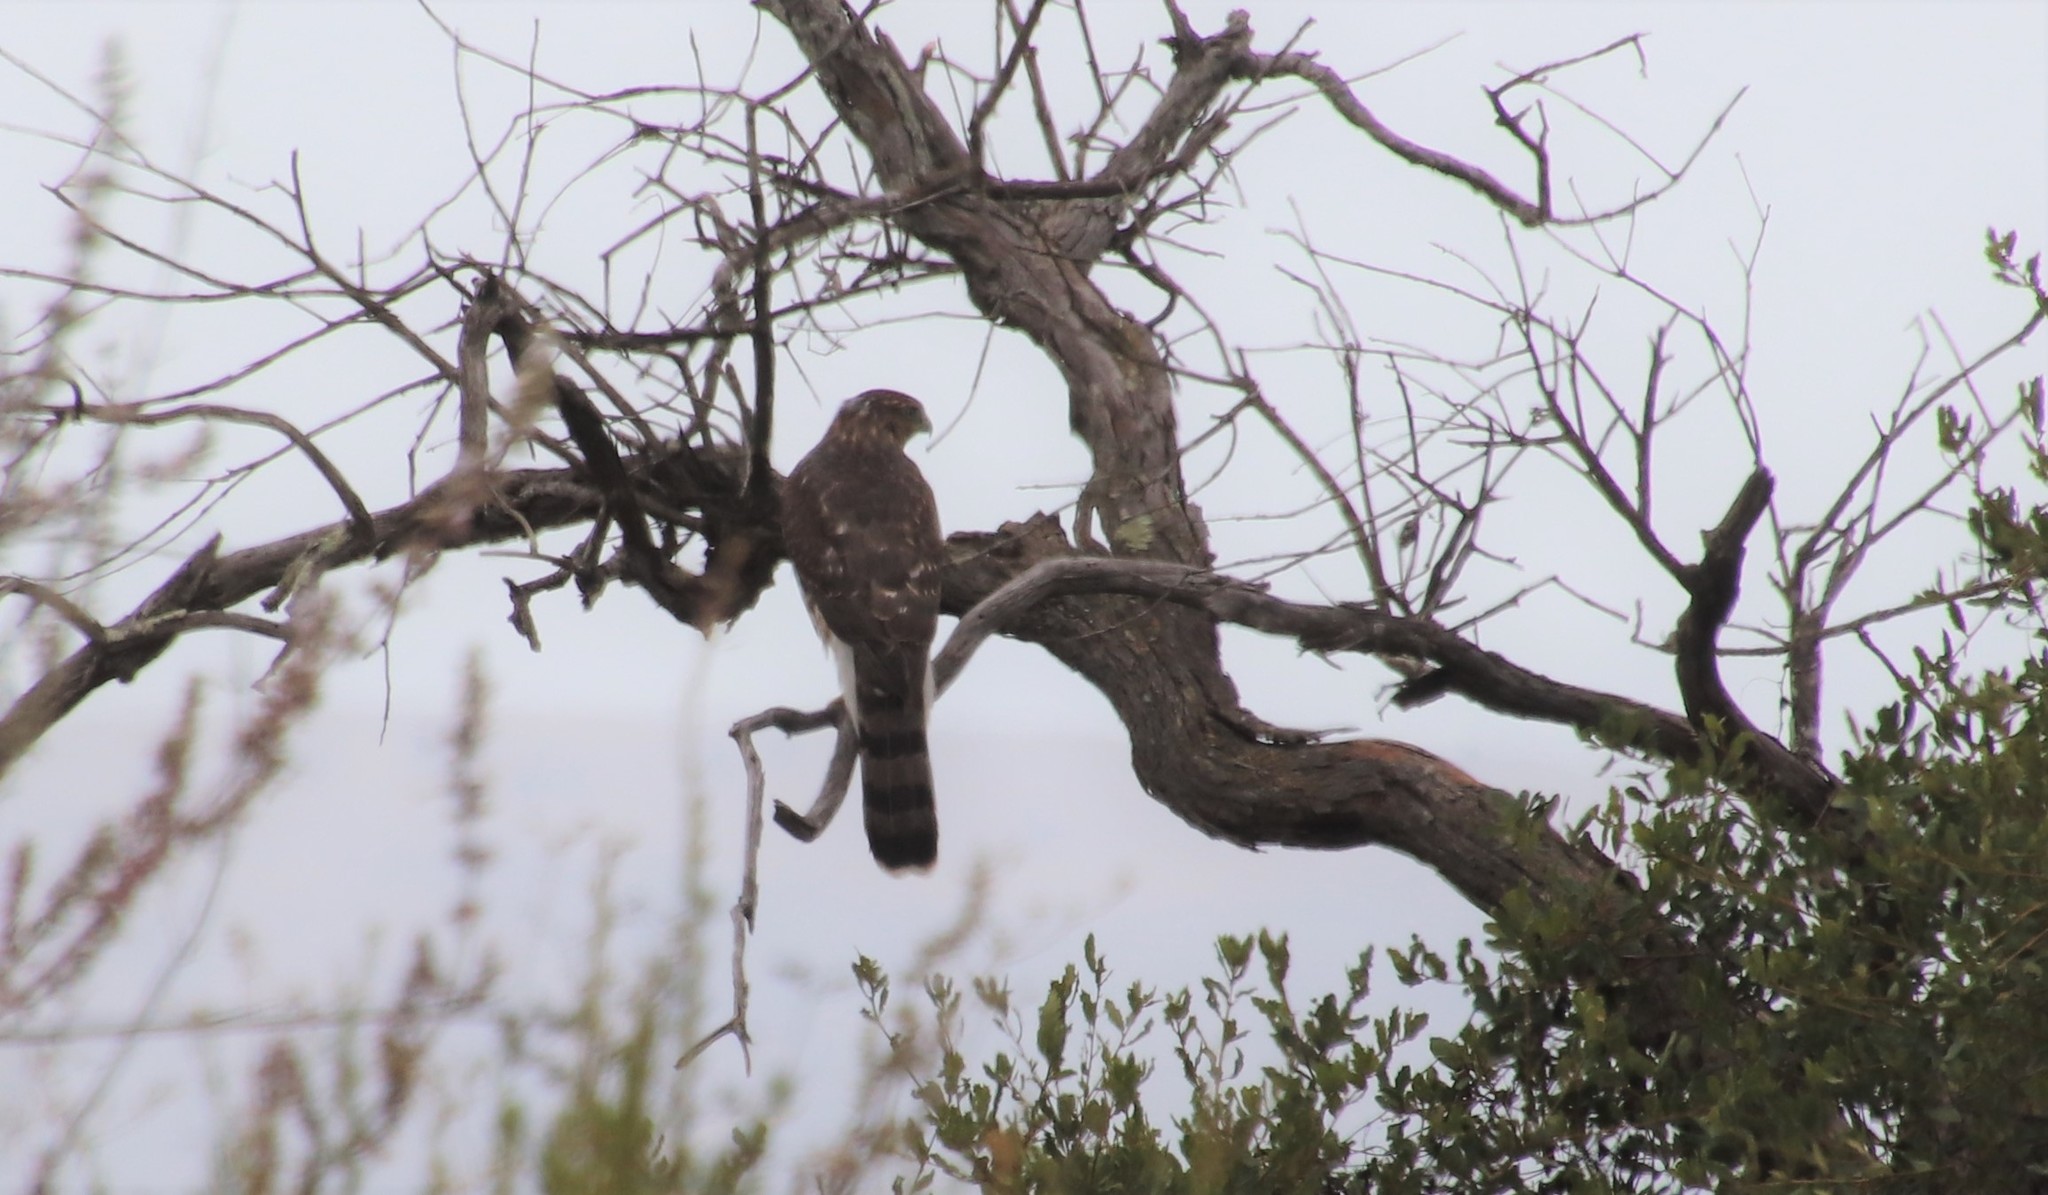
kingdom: Animalia
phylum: Chordata
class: Aves
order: Accipitriformes
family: Accipitridae
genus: Accipiter
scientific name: Accipiter cooperii
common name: Cooper's hawk
